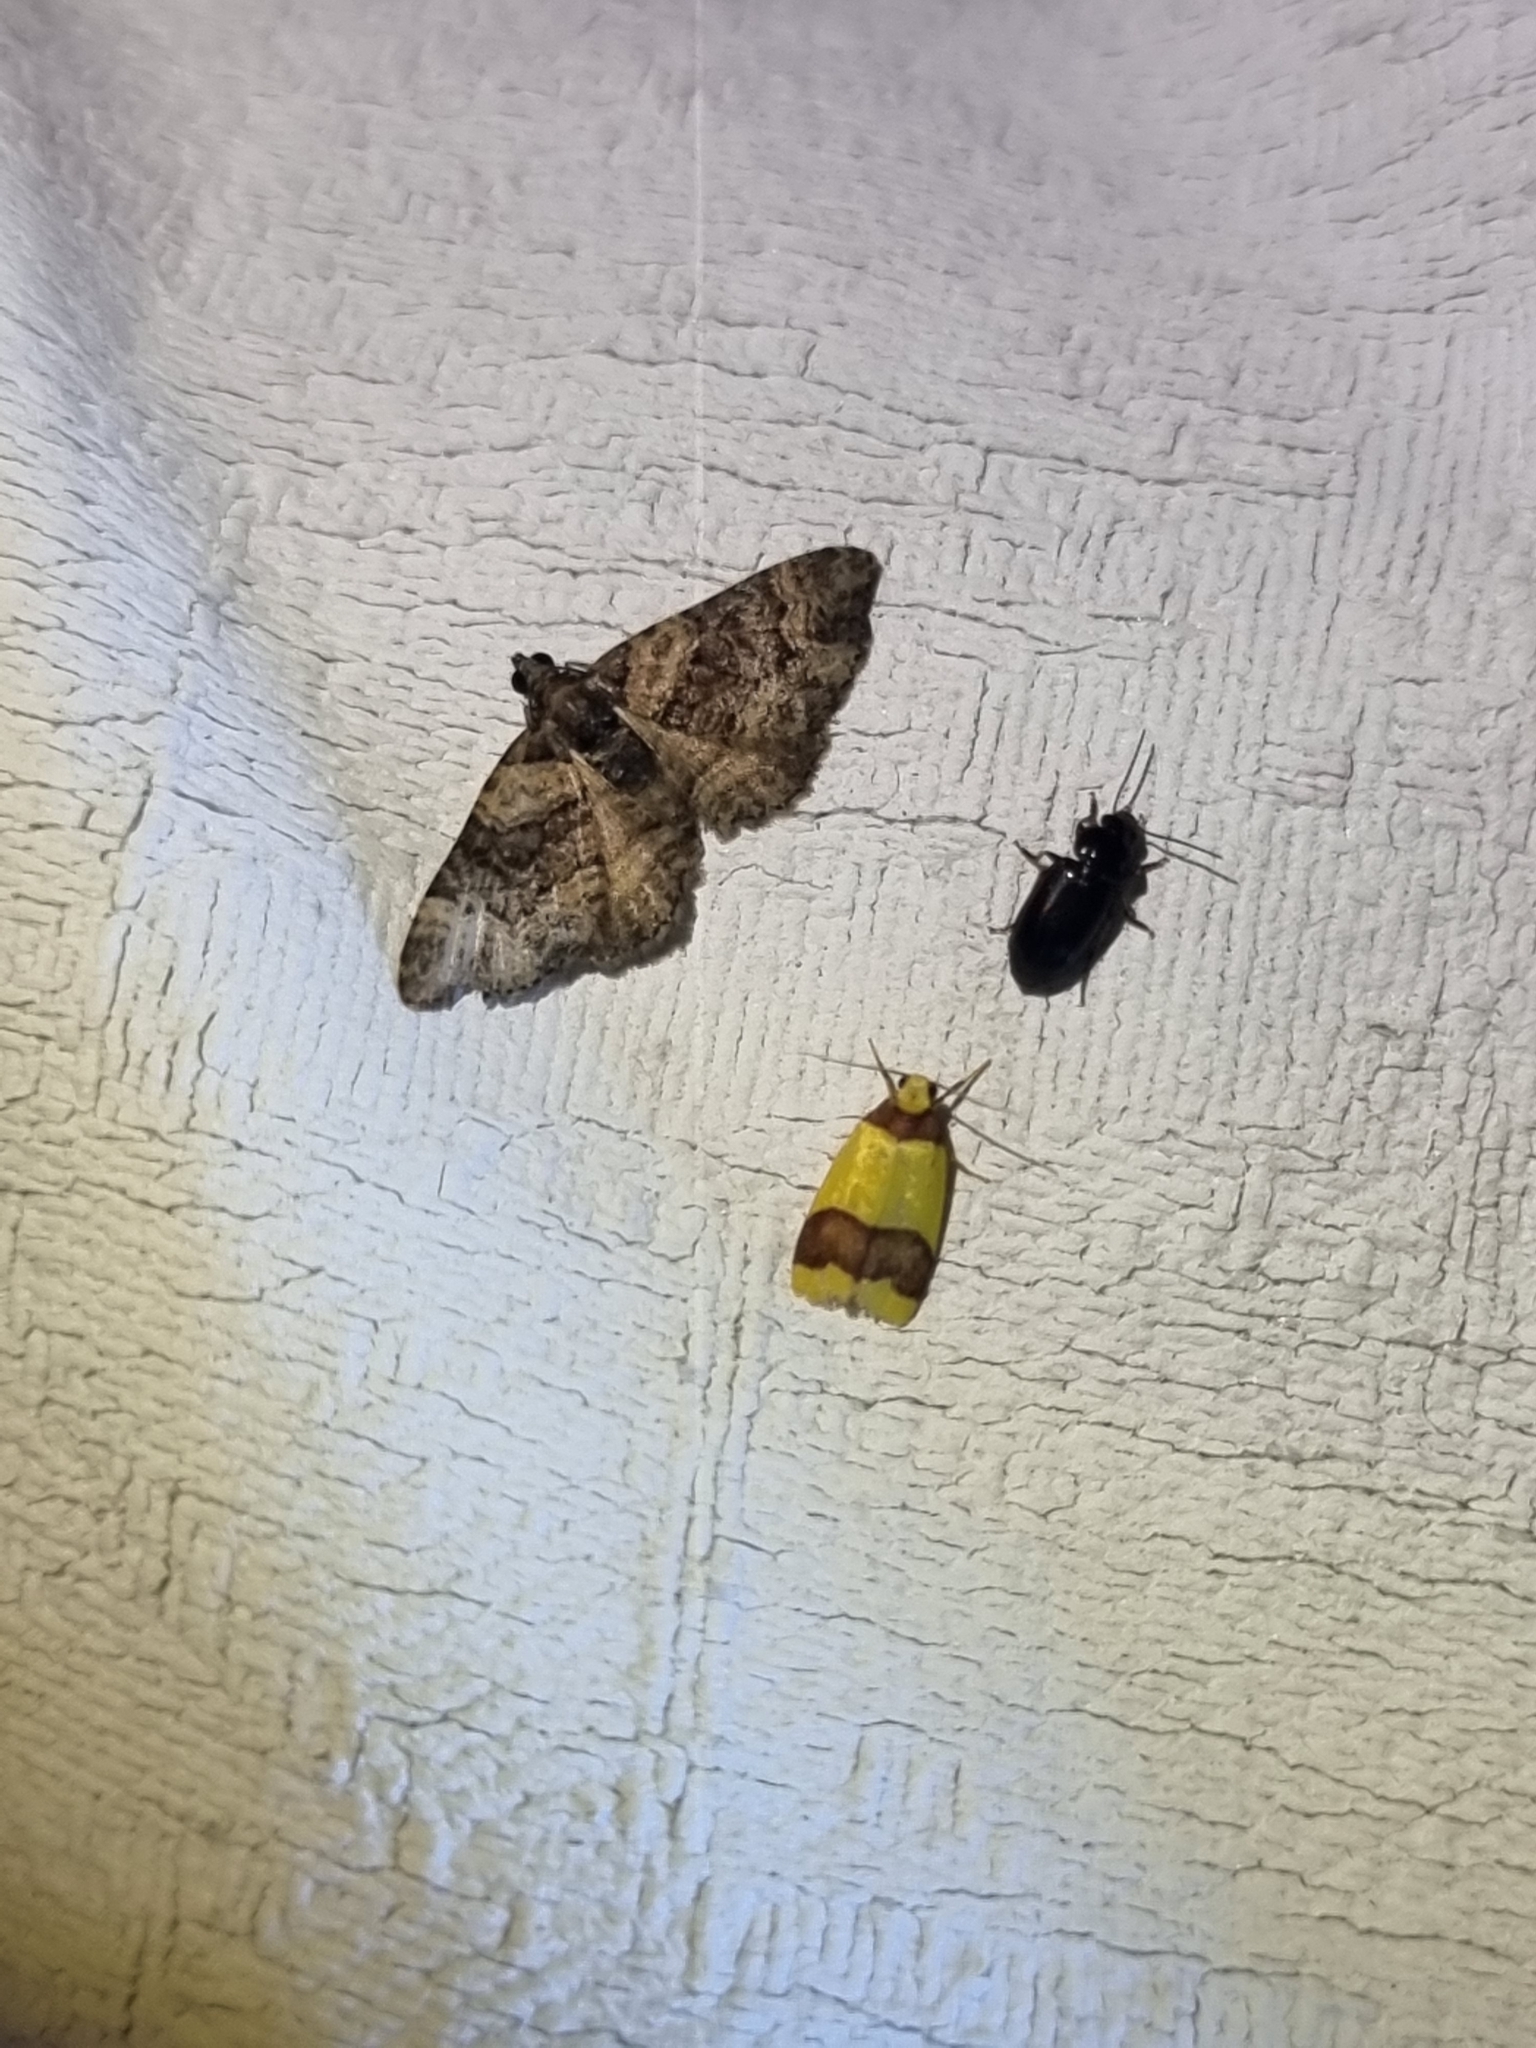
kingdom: Animalia
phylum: Arthropoda
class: Insecta
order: Lepidoptera
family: Geometridae
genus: Epyaxa
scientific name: Epyaxa sodaliata
